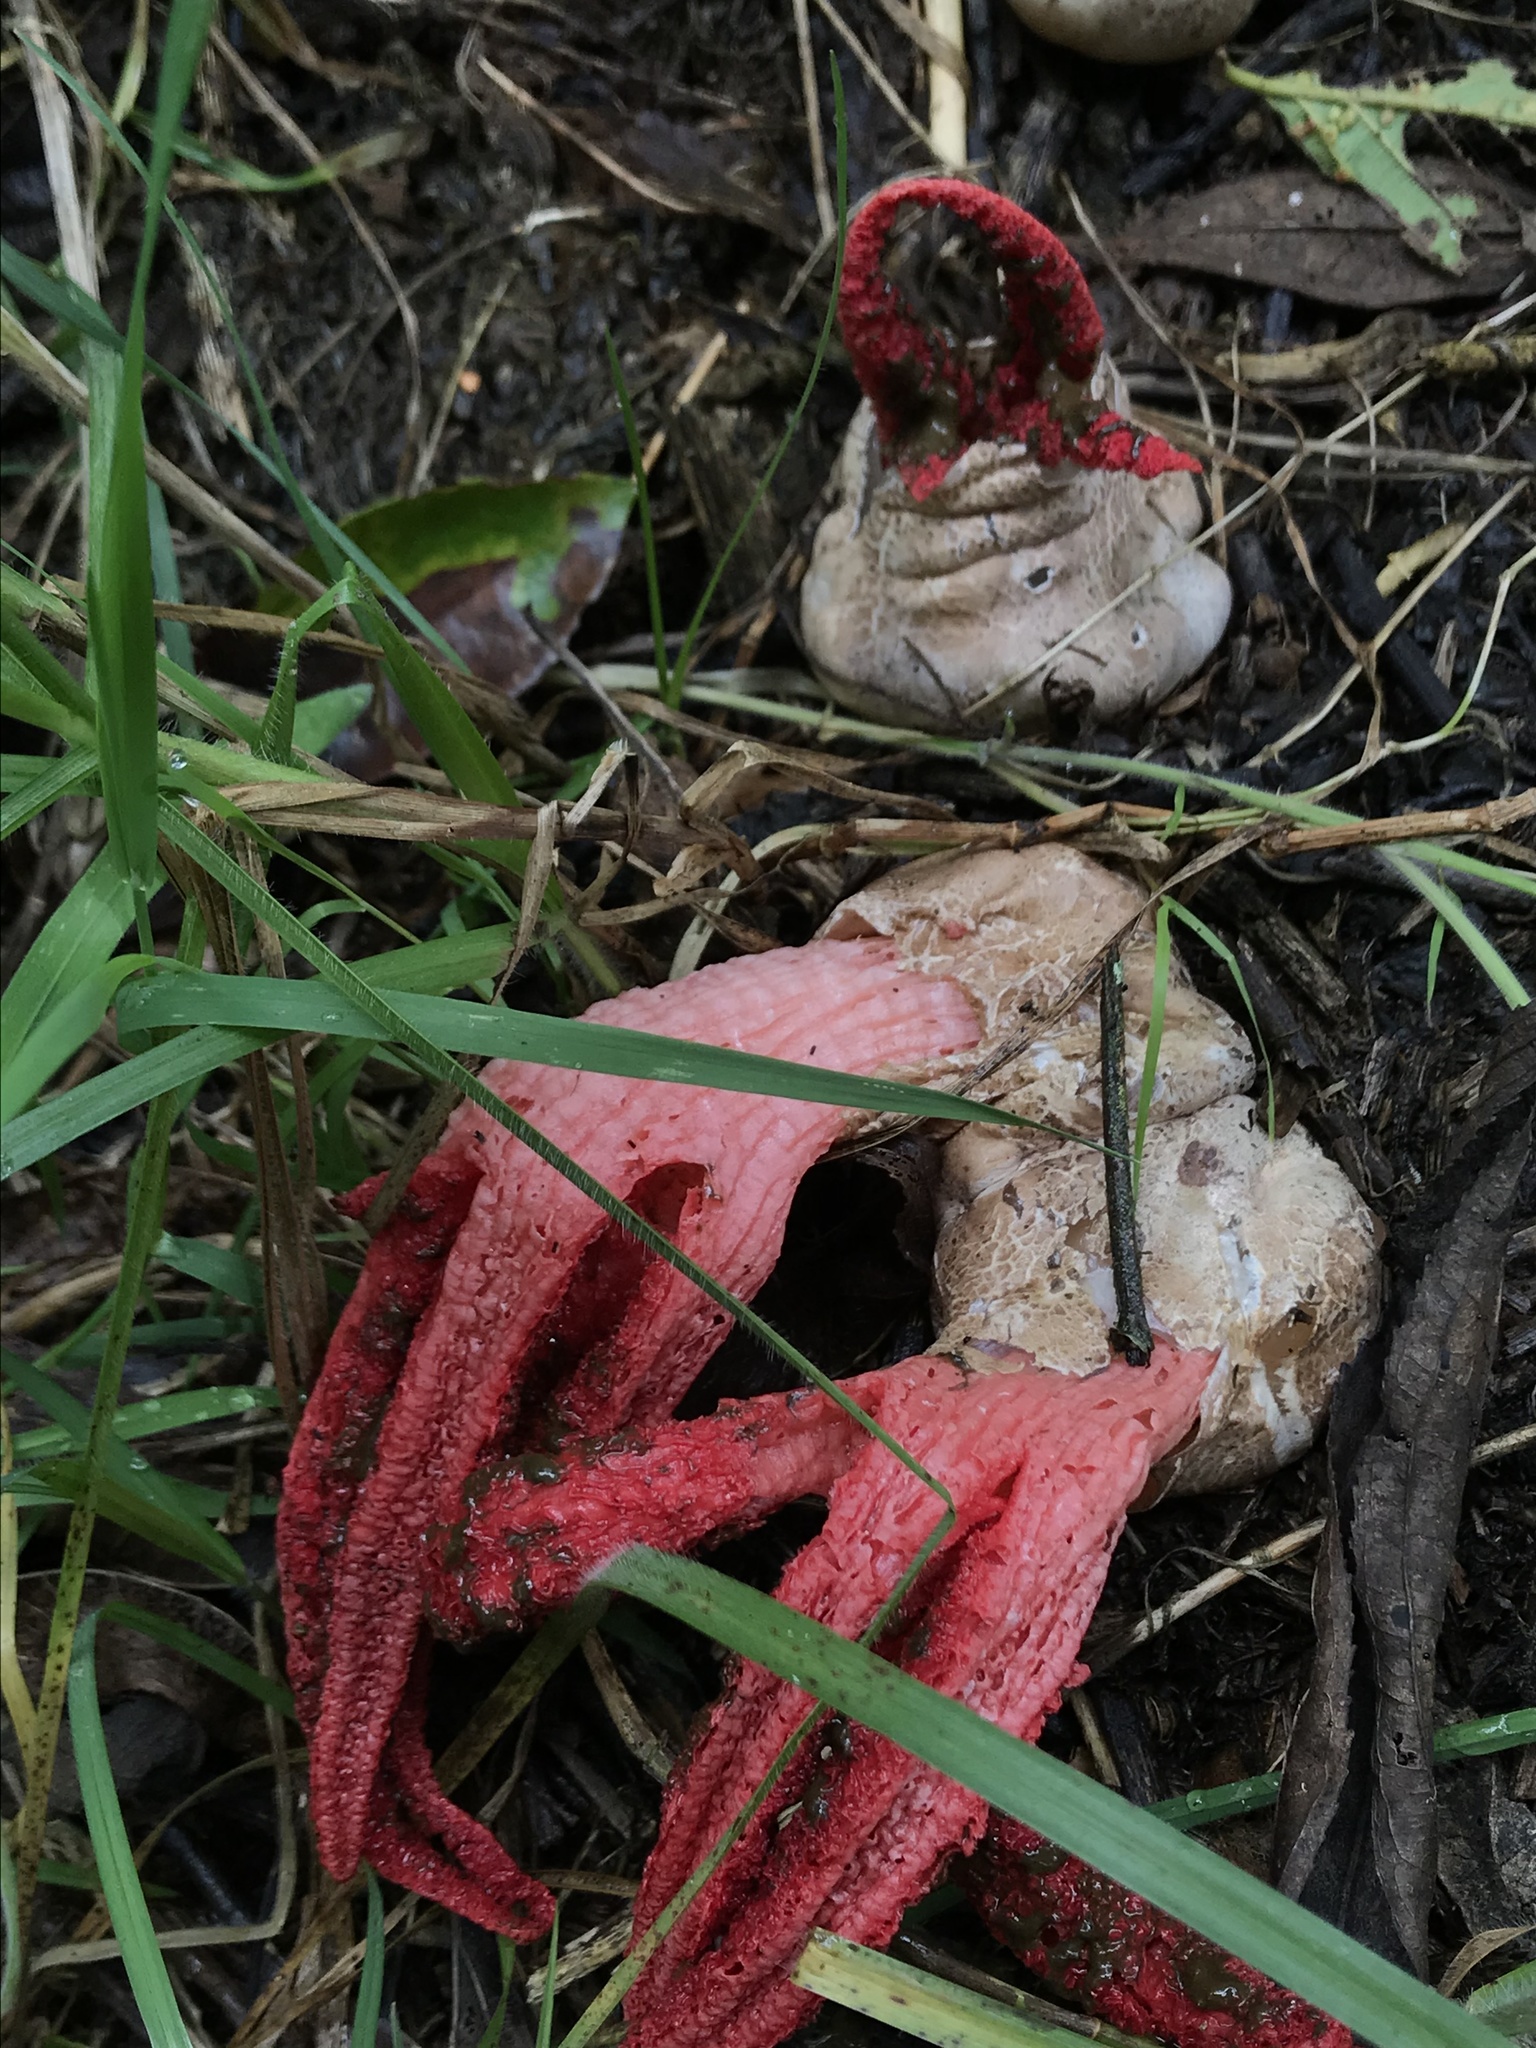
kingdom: Fungi
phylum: Basidiomycota
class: Agaricomycetes
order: Phallales
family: Phallaceae
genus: Clathrus
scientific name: Clathrus archeri
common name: Devil's fingers
